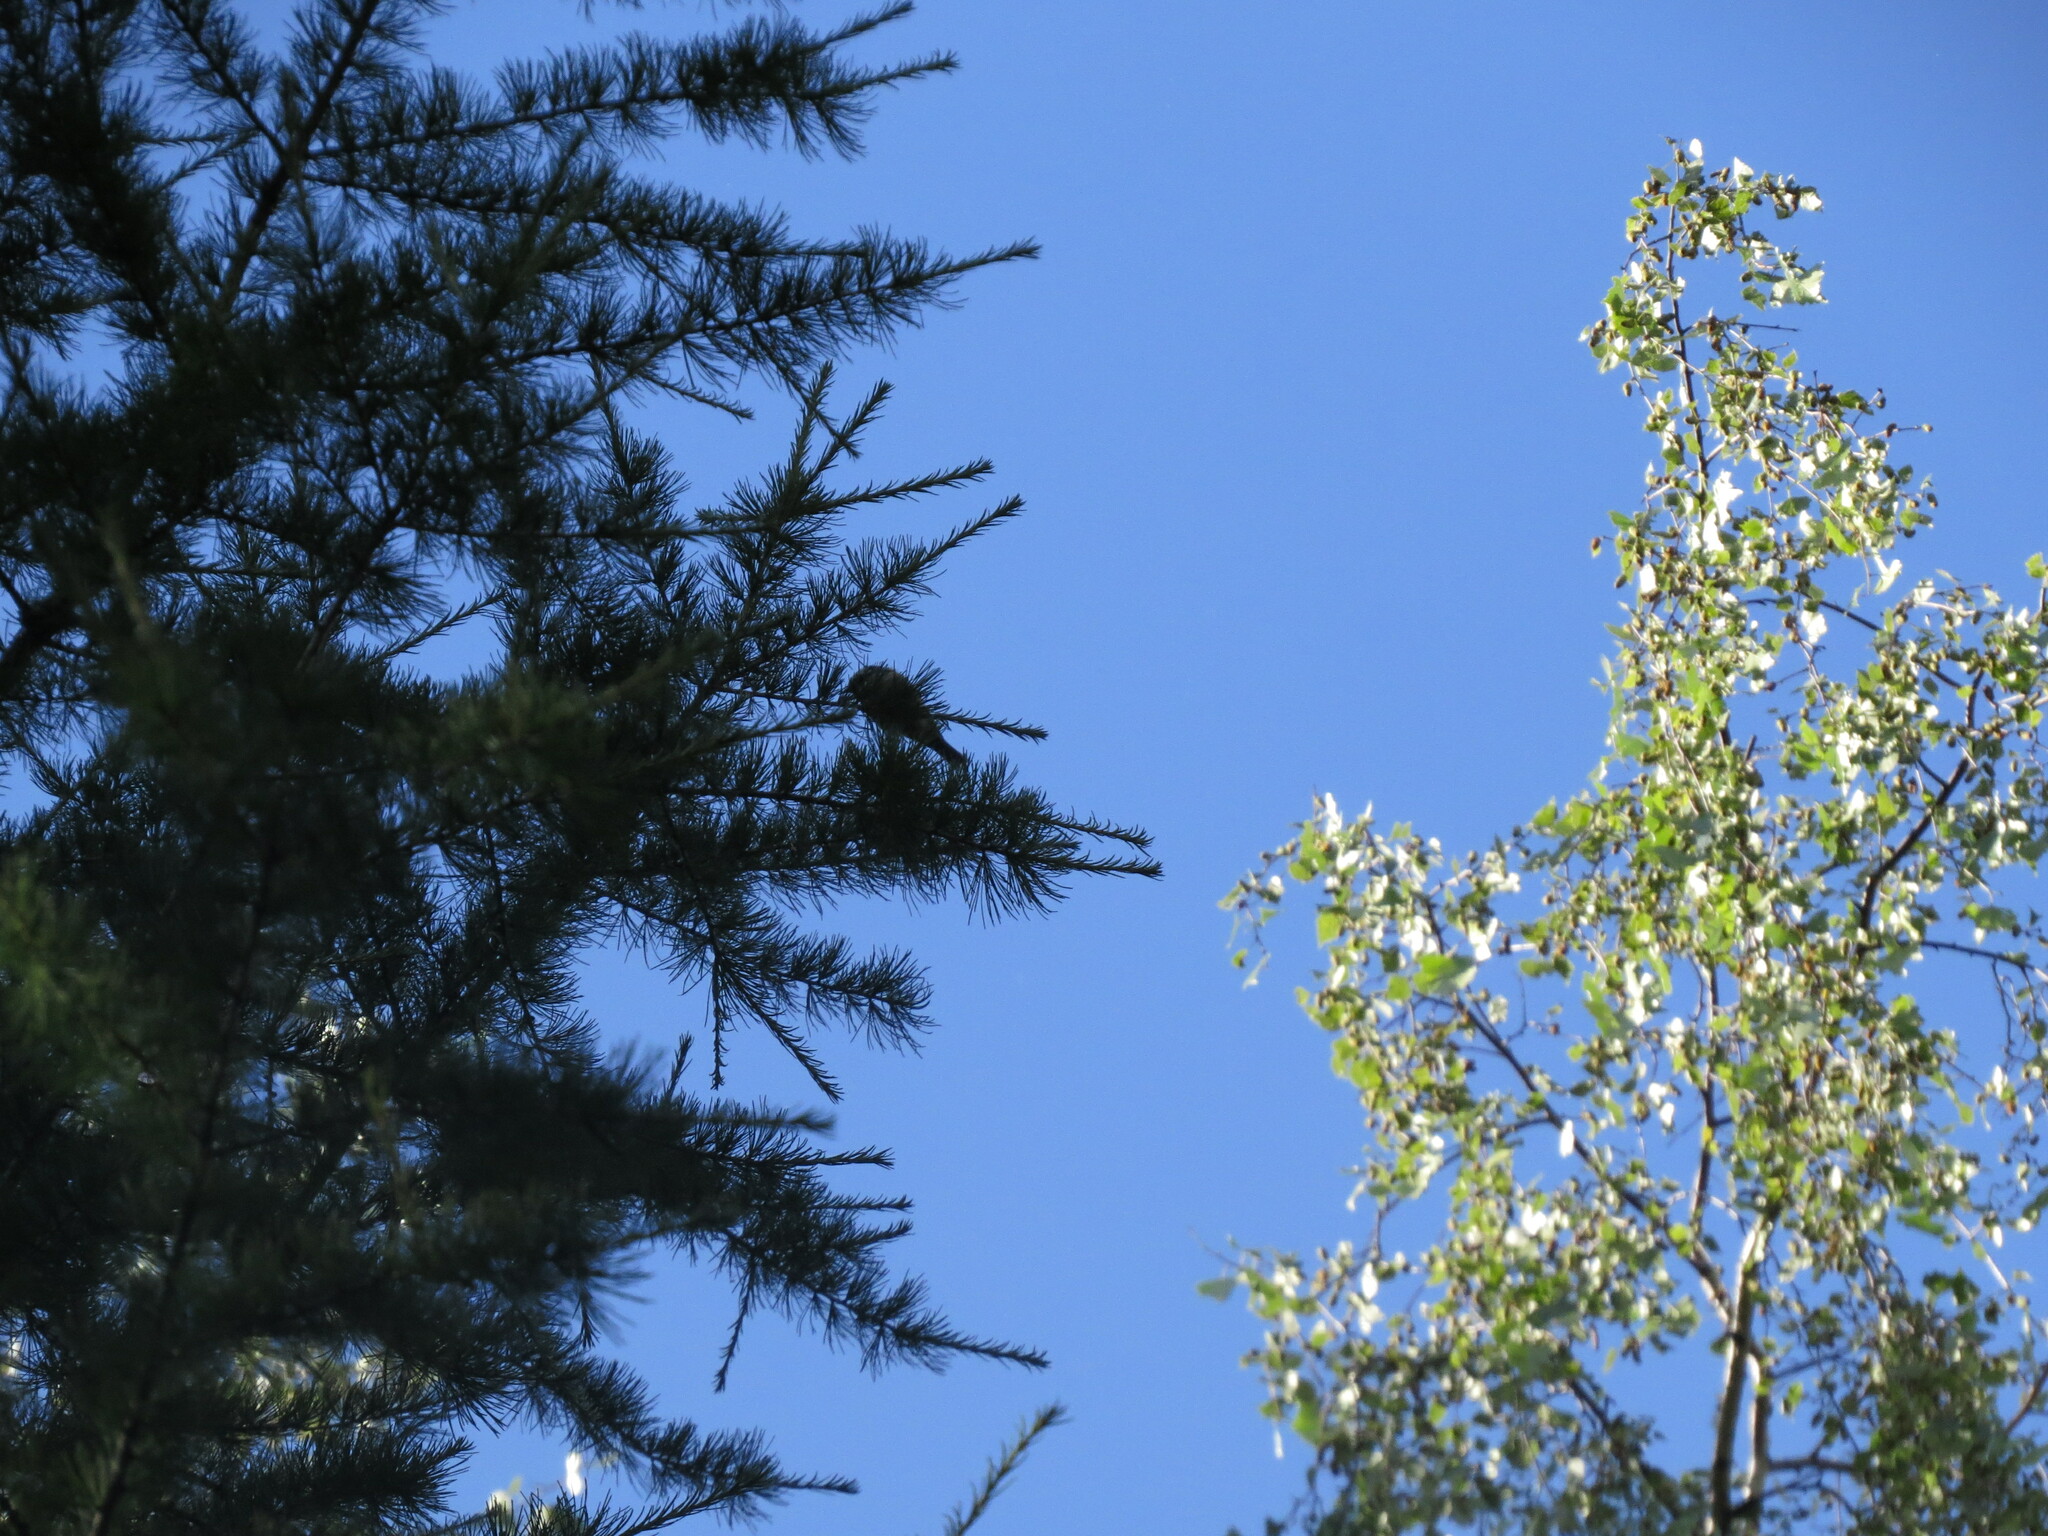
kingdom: Animalia
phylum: Chordata
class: Aves
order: Passeriformes
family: Paridae
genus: Poecile
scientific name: Poecile montanus
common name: Willow tit
